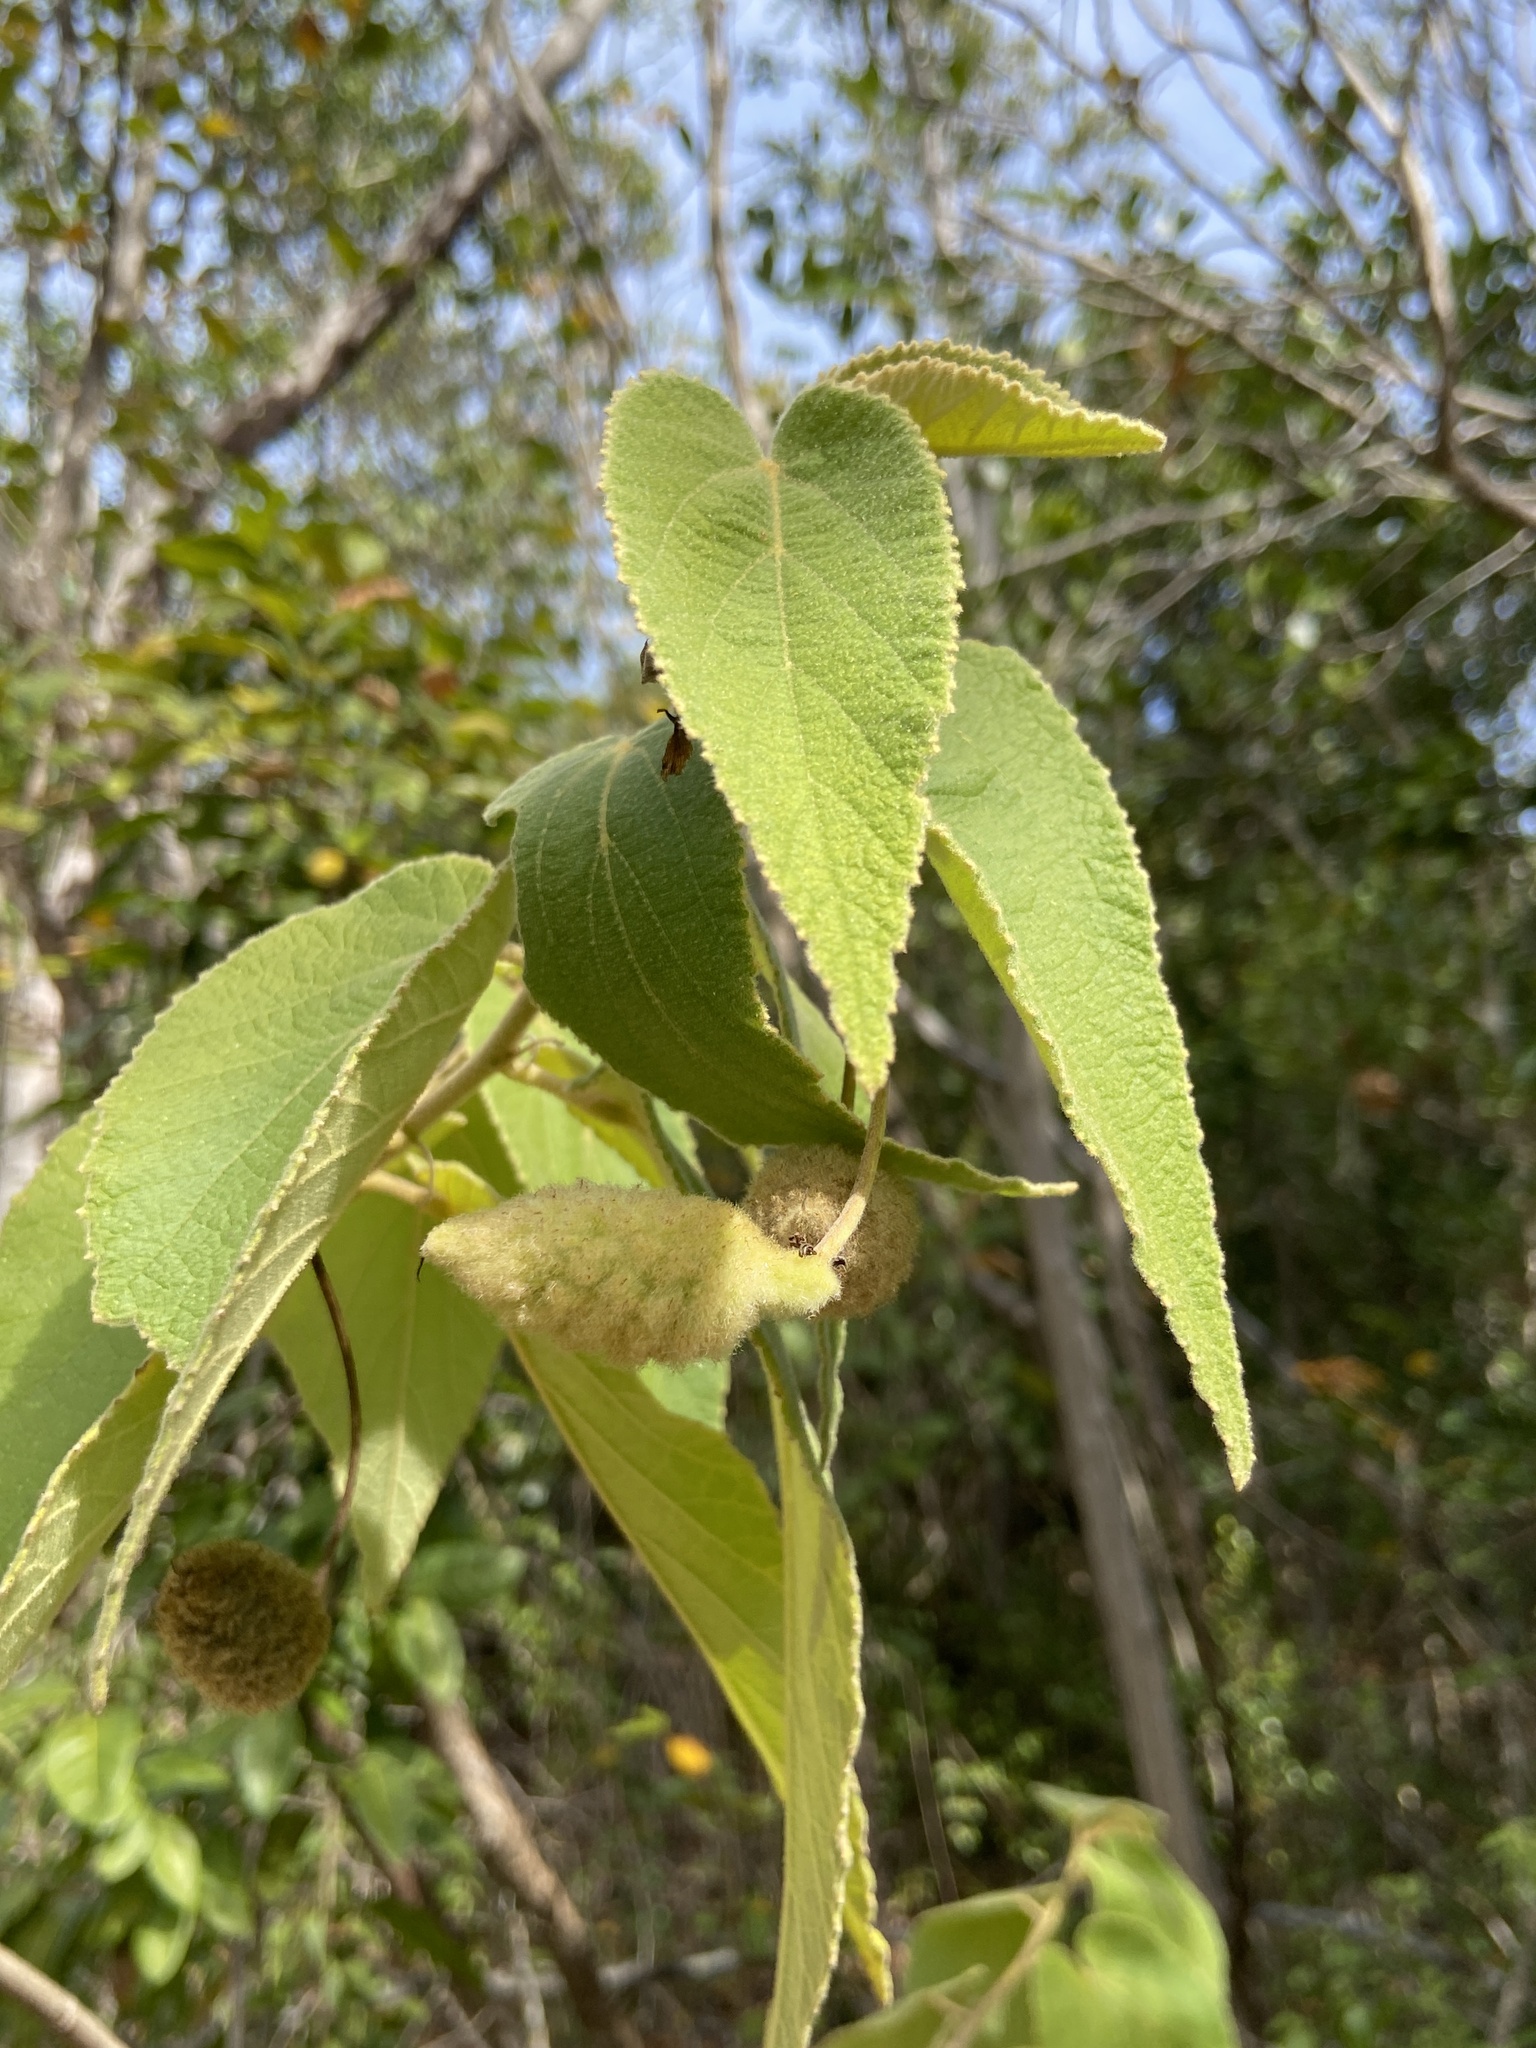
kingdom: Plantae
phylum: Tracheophyta
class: Magnoliopsida
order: Malvales
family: Malvaceae
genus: Helicteres
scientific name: Helicteres jamaicensis
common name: Cowbush
